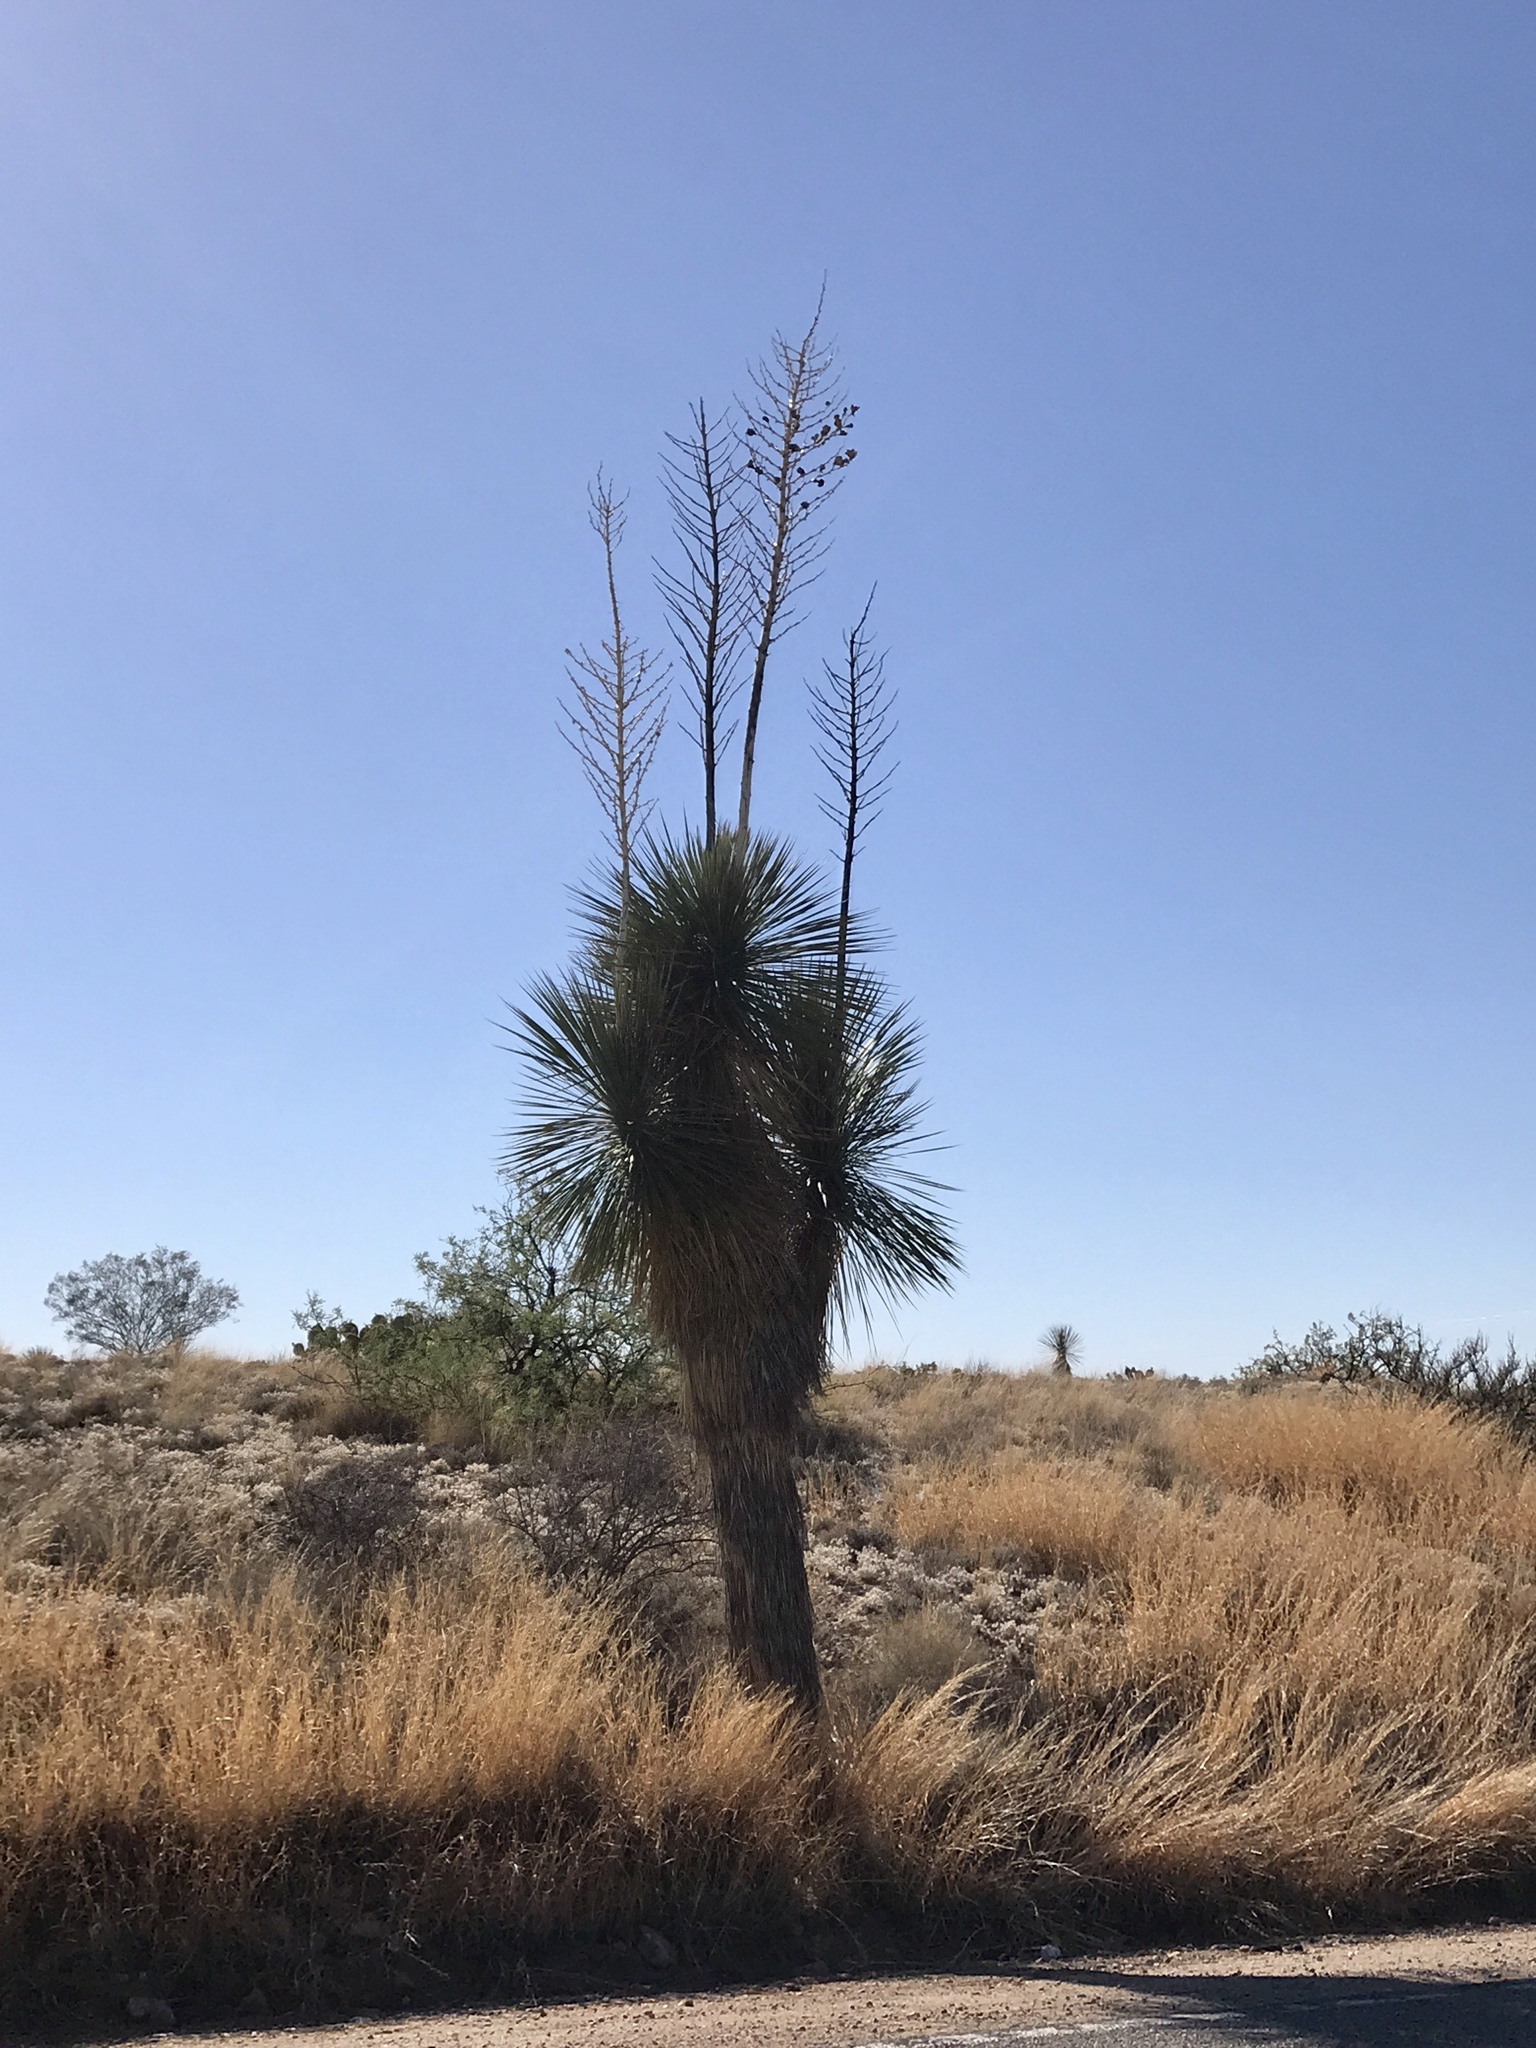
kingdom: Plantae
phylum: Tracheophyta
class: Liliopsida
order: Asparagales
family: Asparagaceae
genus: Yucca
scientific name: Yucca elata
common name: Palmella
